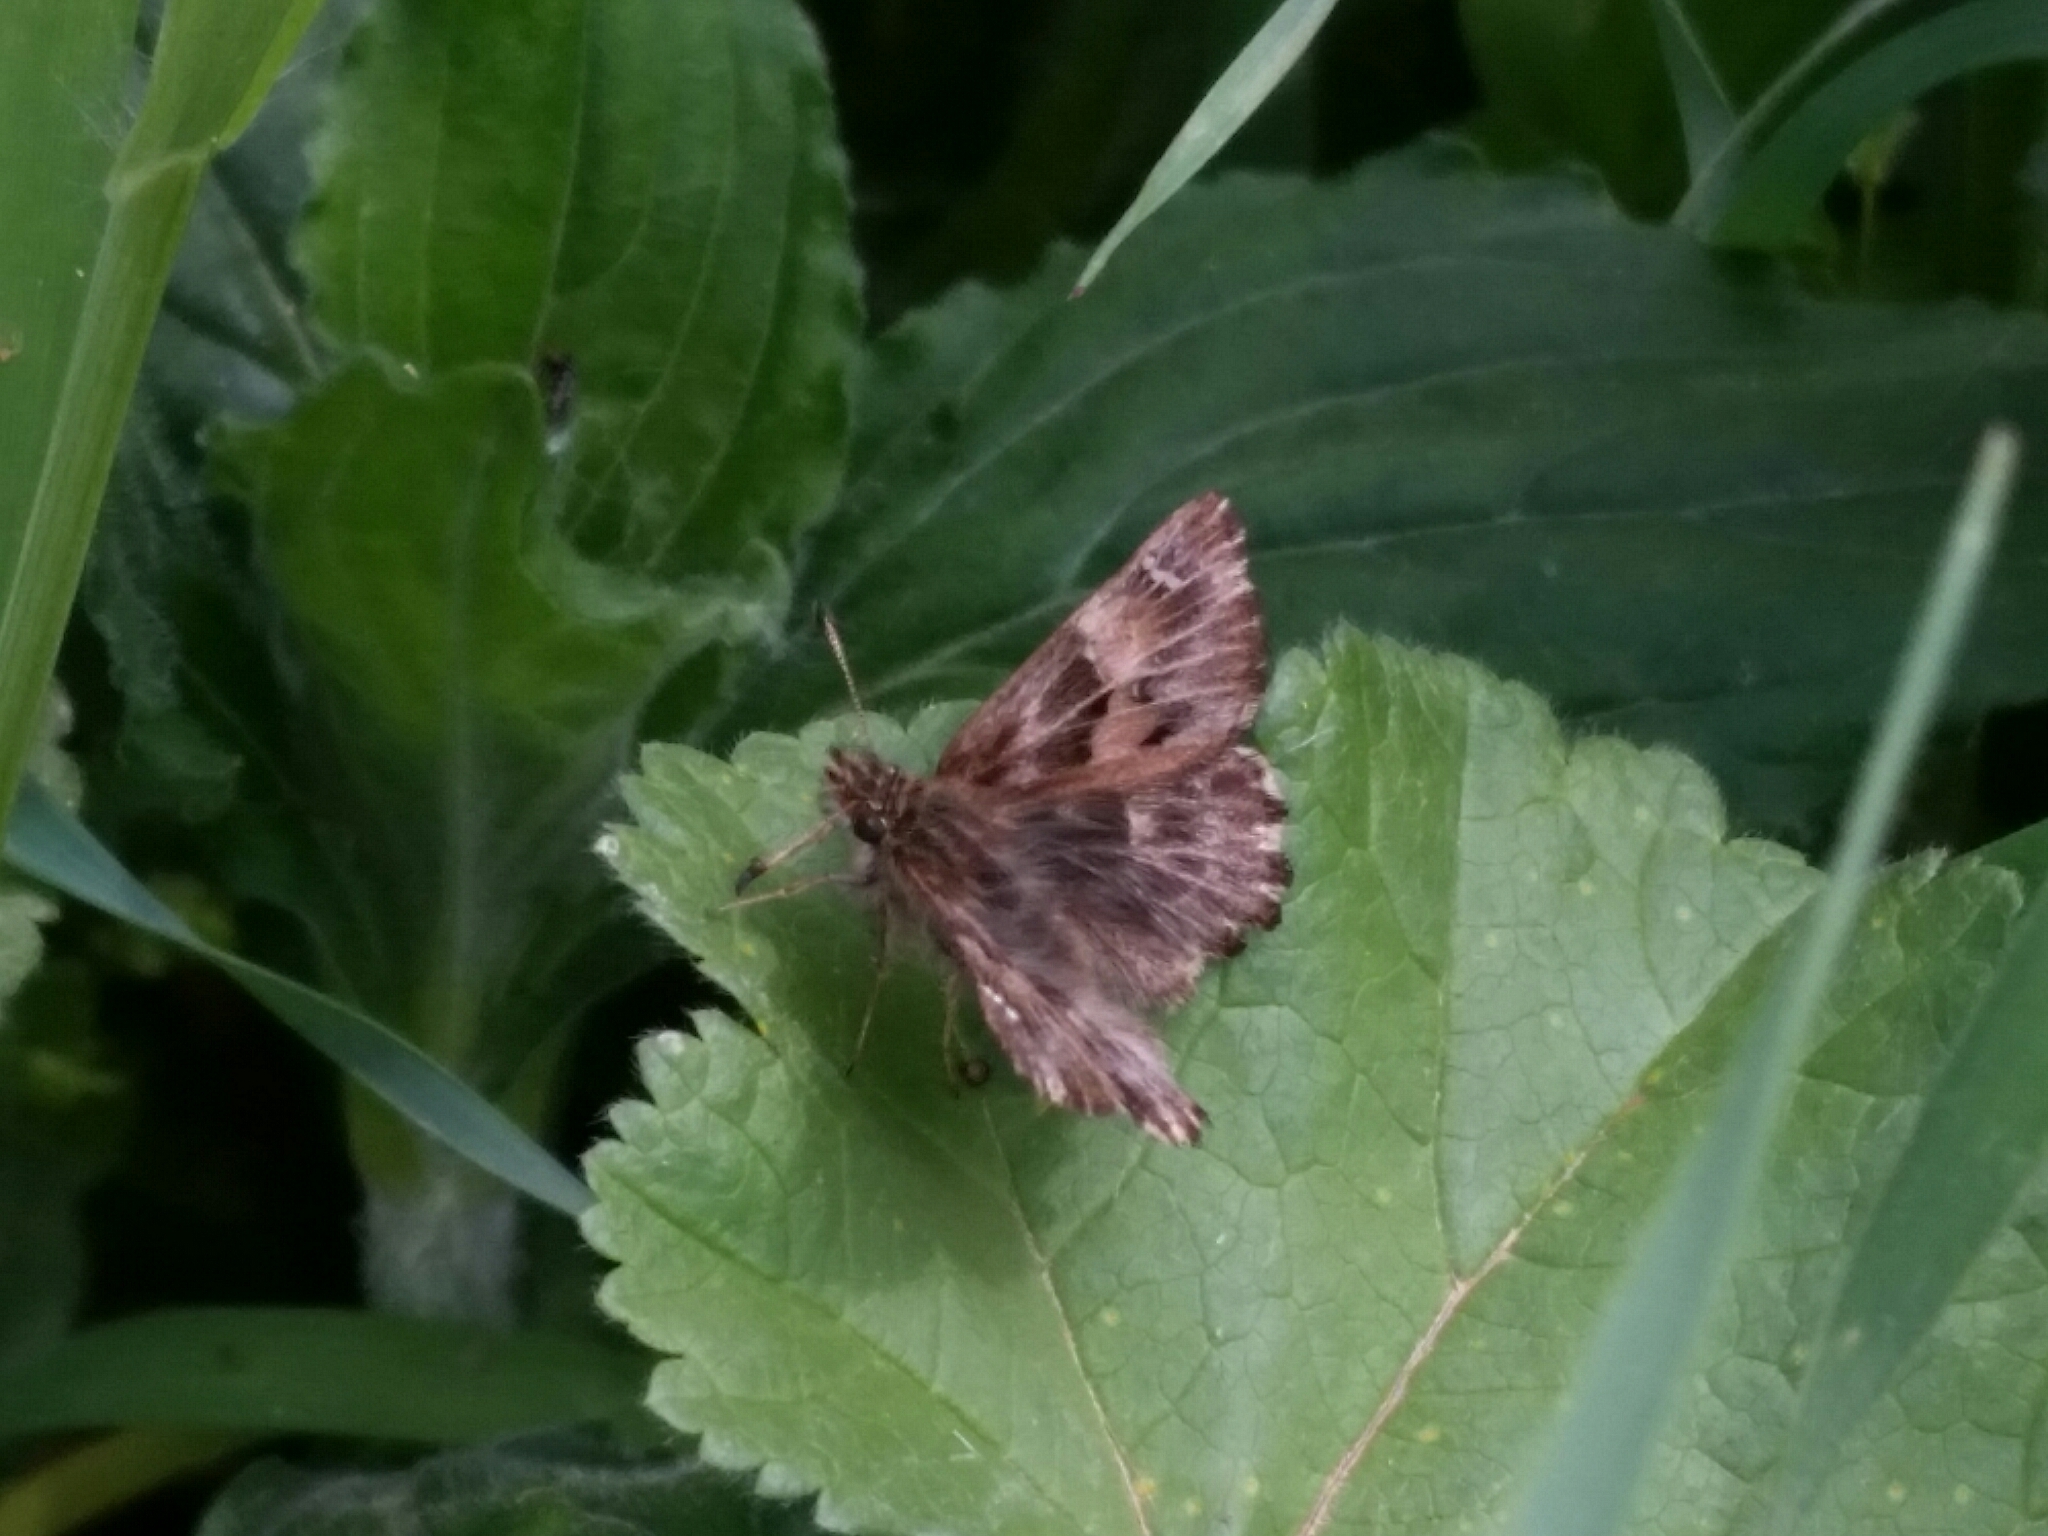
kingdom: Animalia
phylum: Arthropoda
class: Insecta
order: Lepidoptera
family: Hesperiidae
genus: Carcharodus
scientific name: Carcharodus alceae
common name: Mallow skipper
